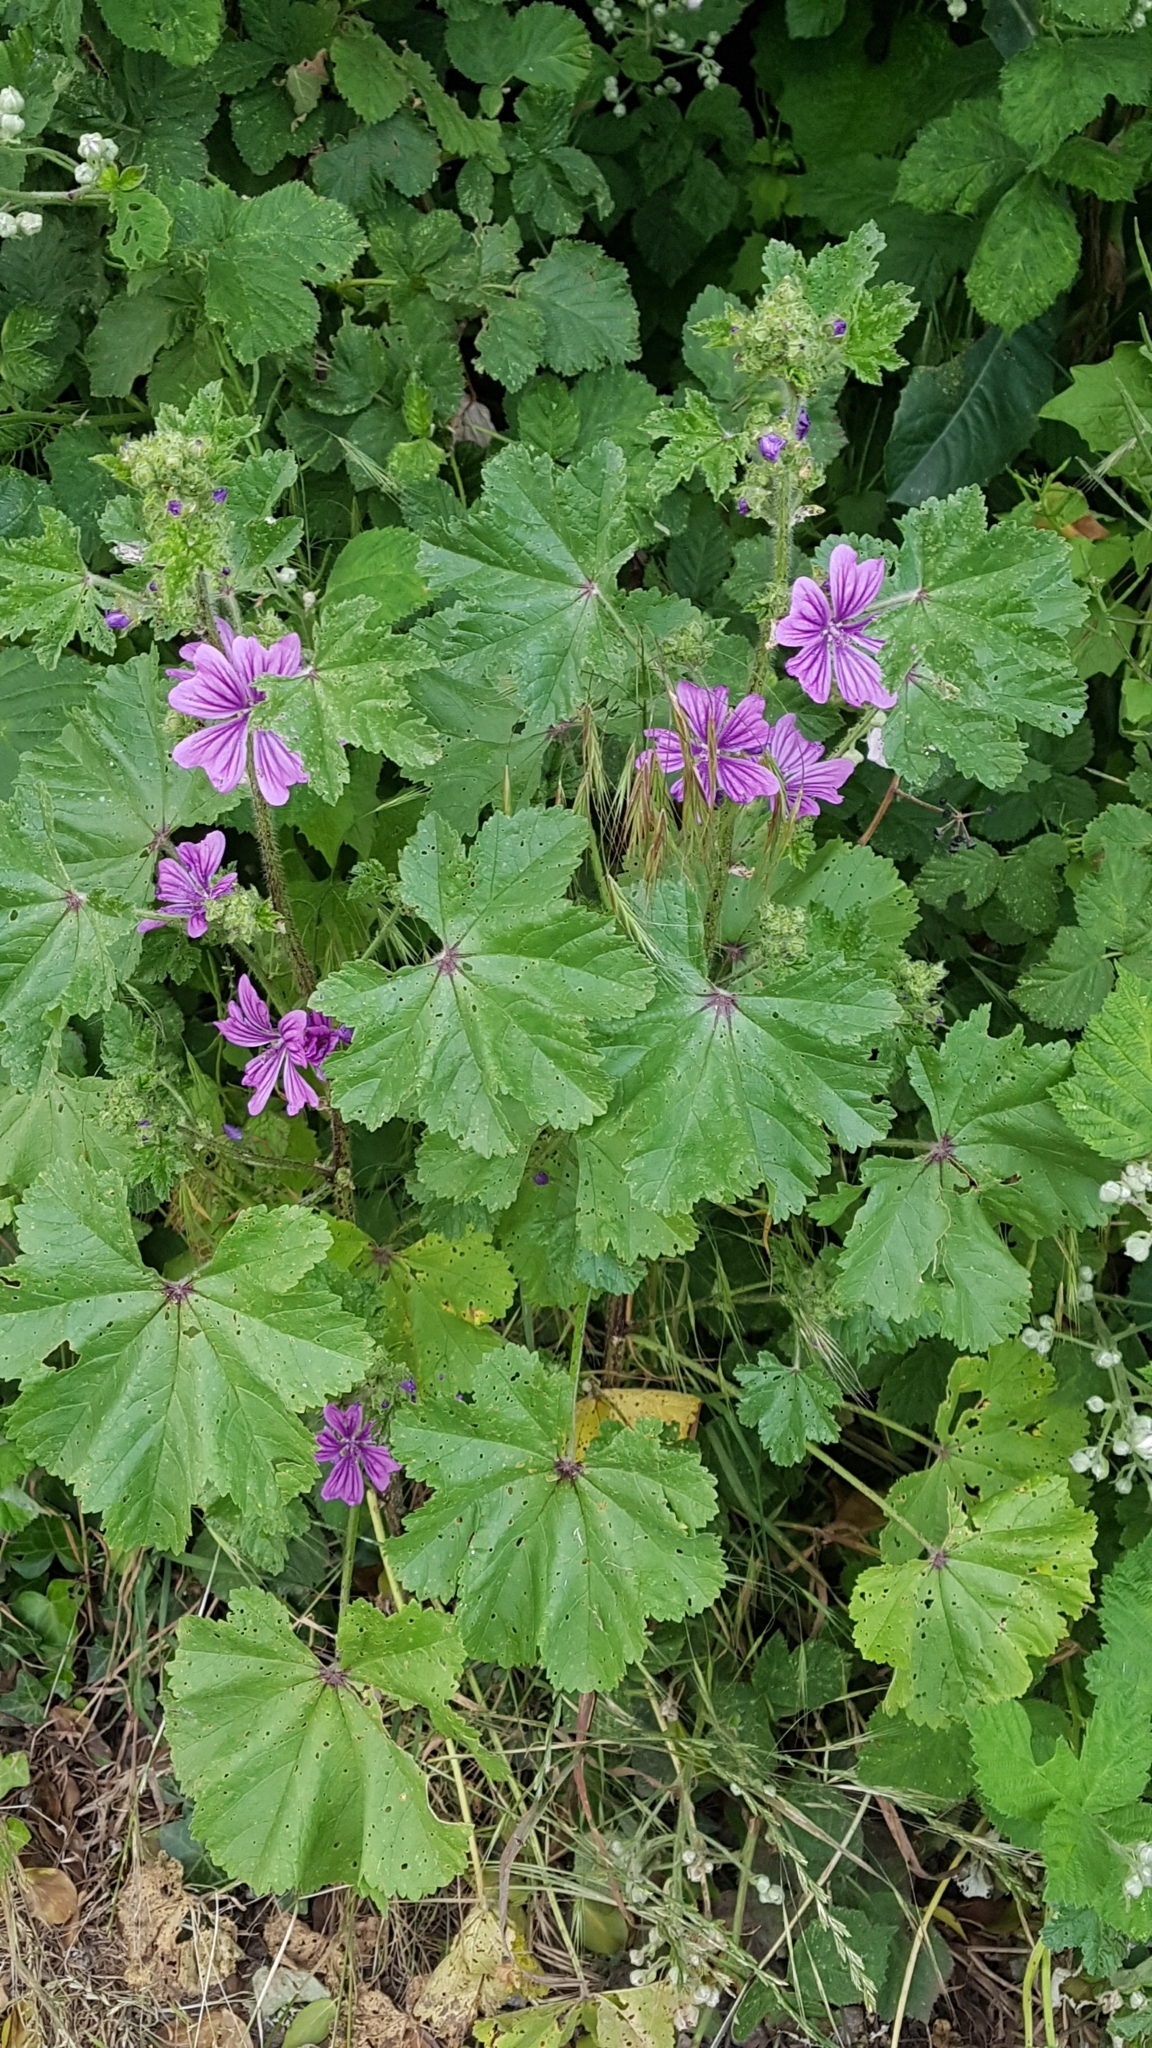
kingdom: Plantae
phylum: Tracheophyta
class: Magnoliopsida
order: Malvales
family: Malvaceae
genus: Malva
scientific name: Malva sylvestris
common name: Common mallow
